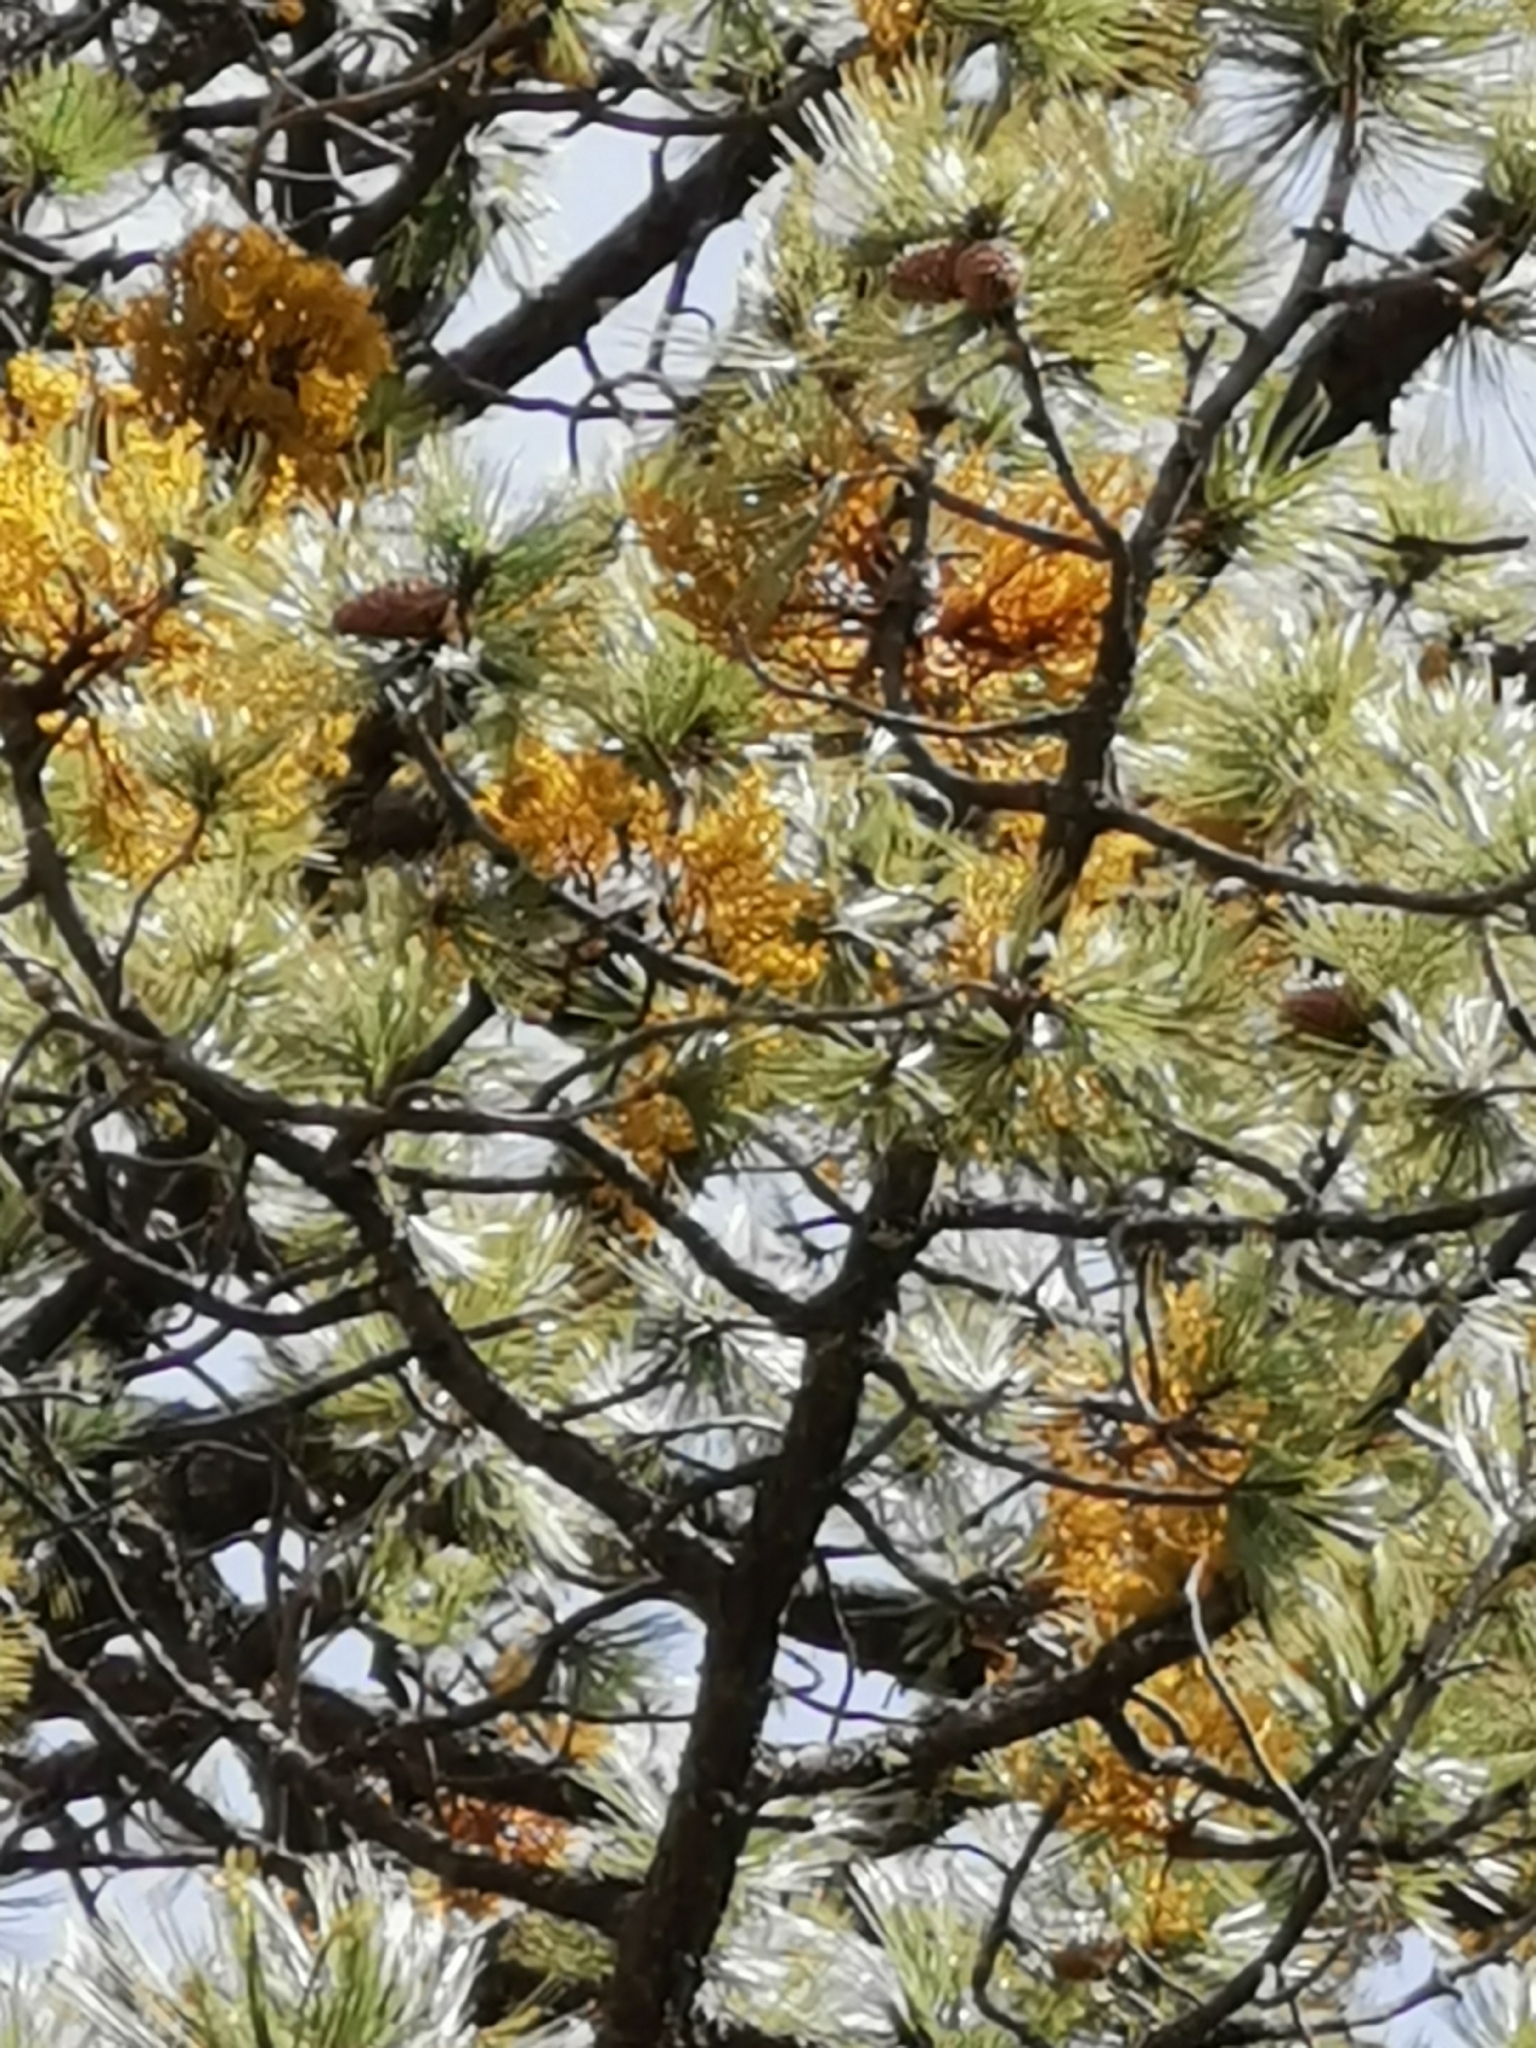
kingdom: Plantae
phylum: Tracheophyta
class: Magnoliopsida
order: Santalales
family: Viscaceae
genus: Arceuthobium
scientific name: Arceuthobium globosum
